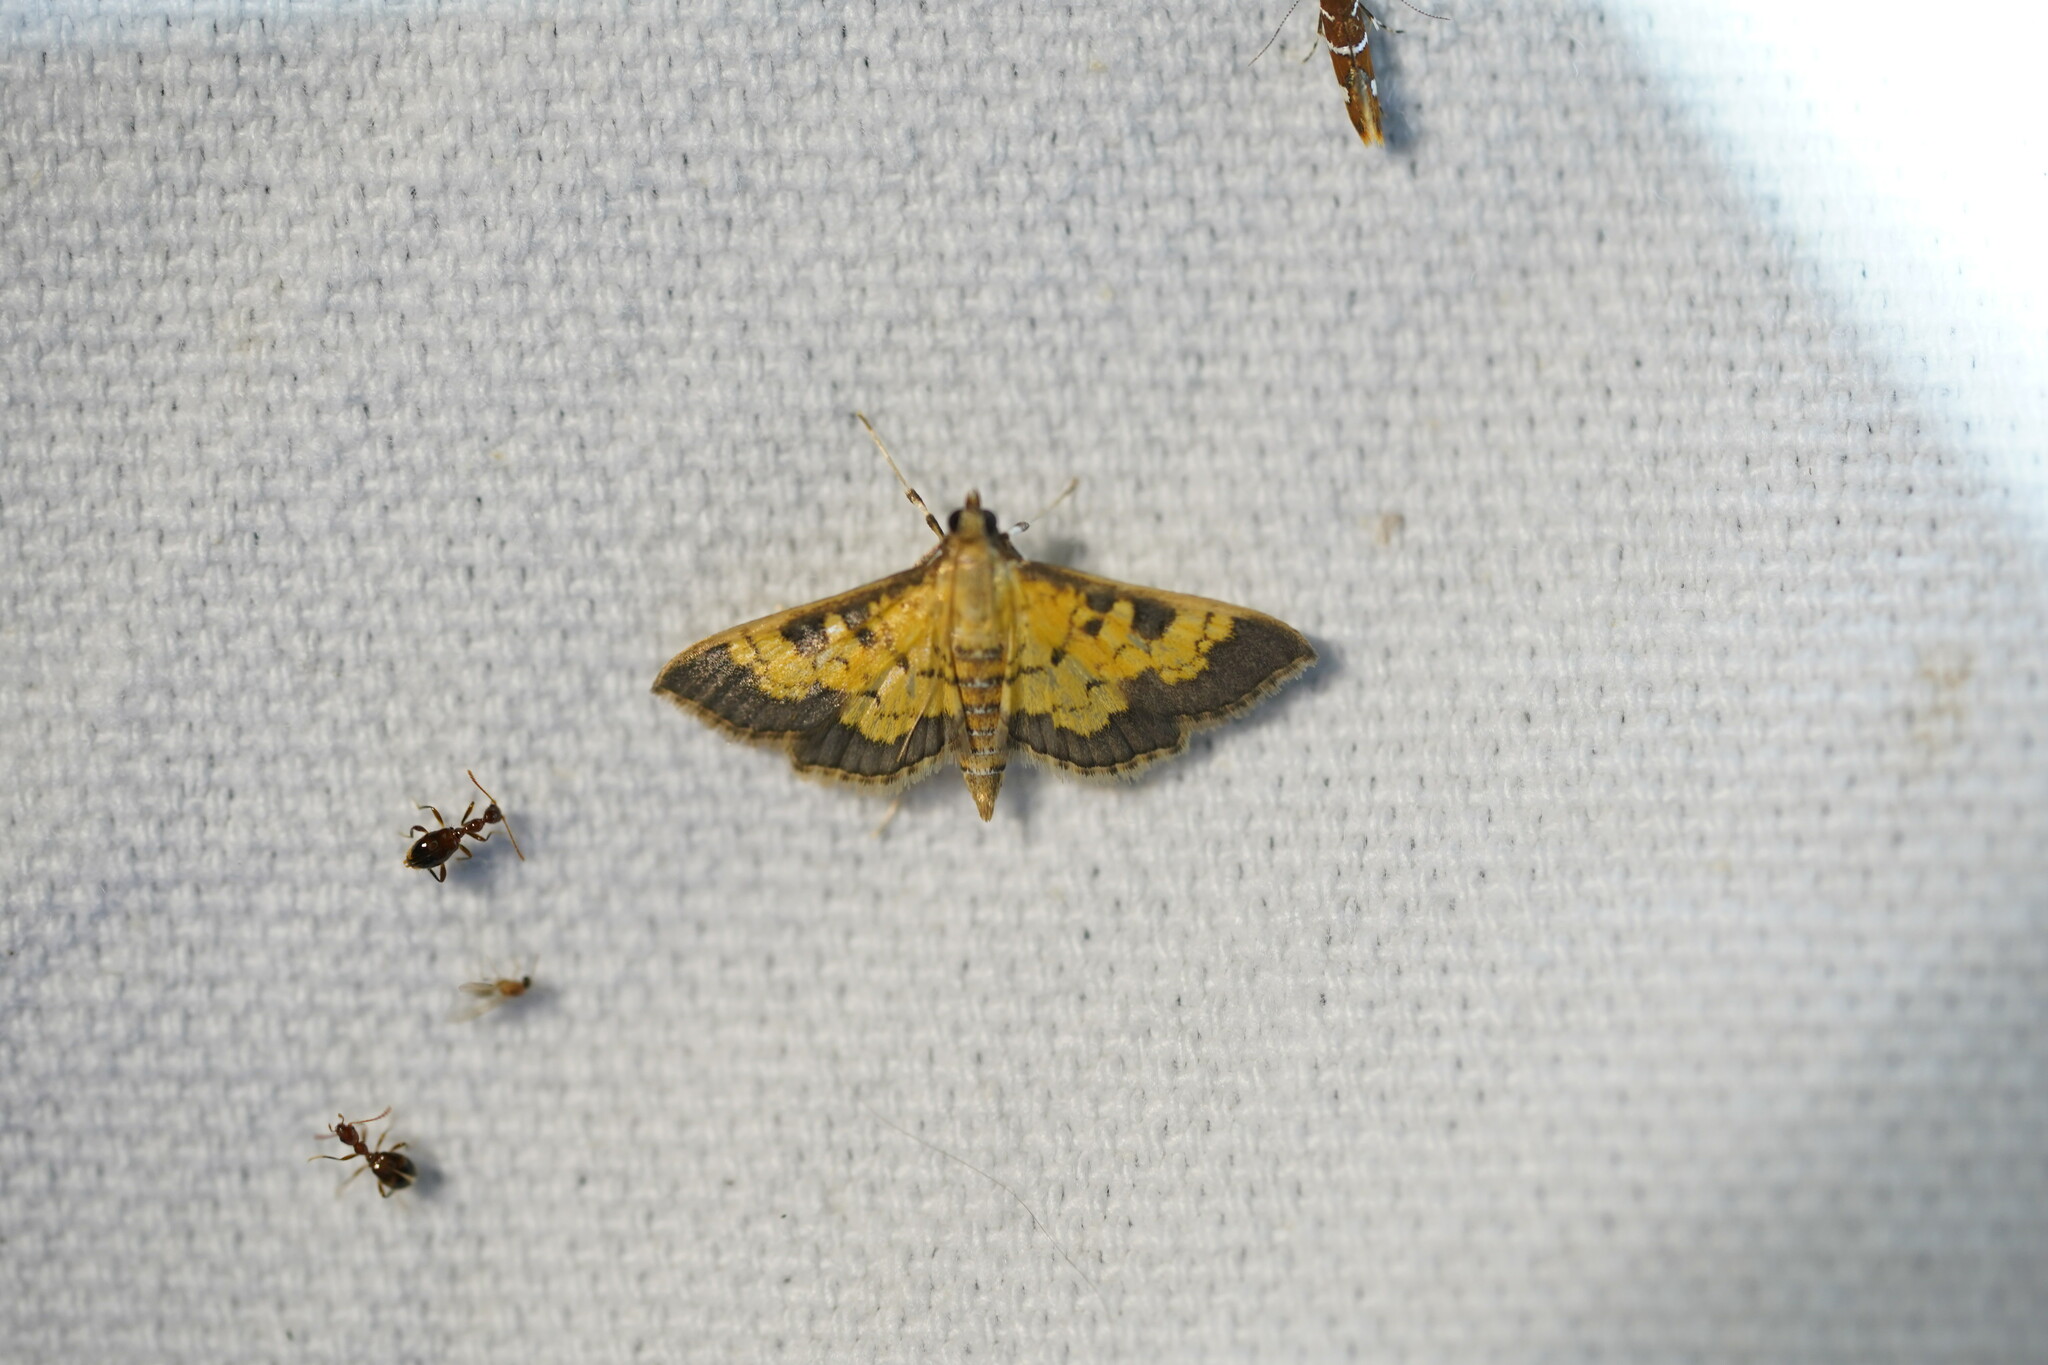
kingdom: Animalia
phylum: Arthropoda
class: Insecta
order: Lepidoptera
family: Crambidae
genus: Cryptographis
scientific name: Cryptographis elealis
